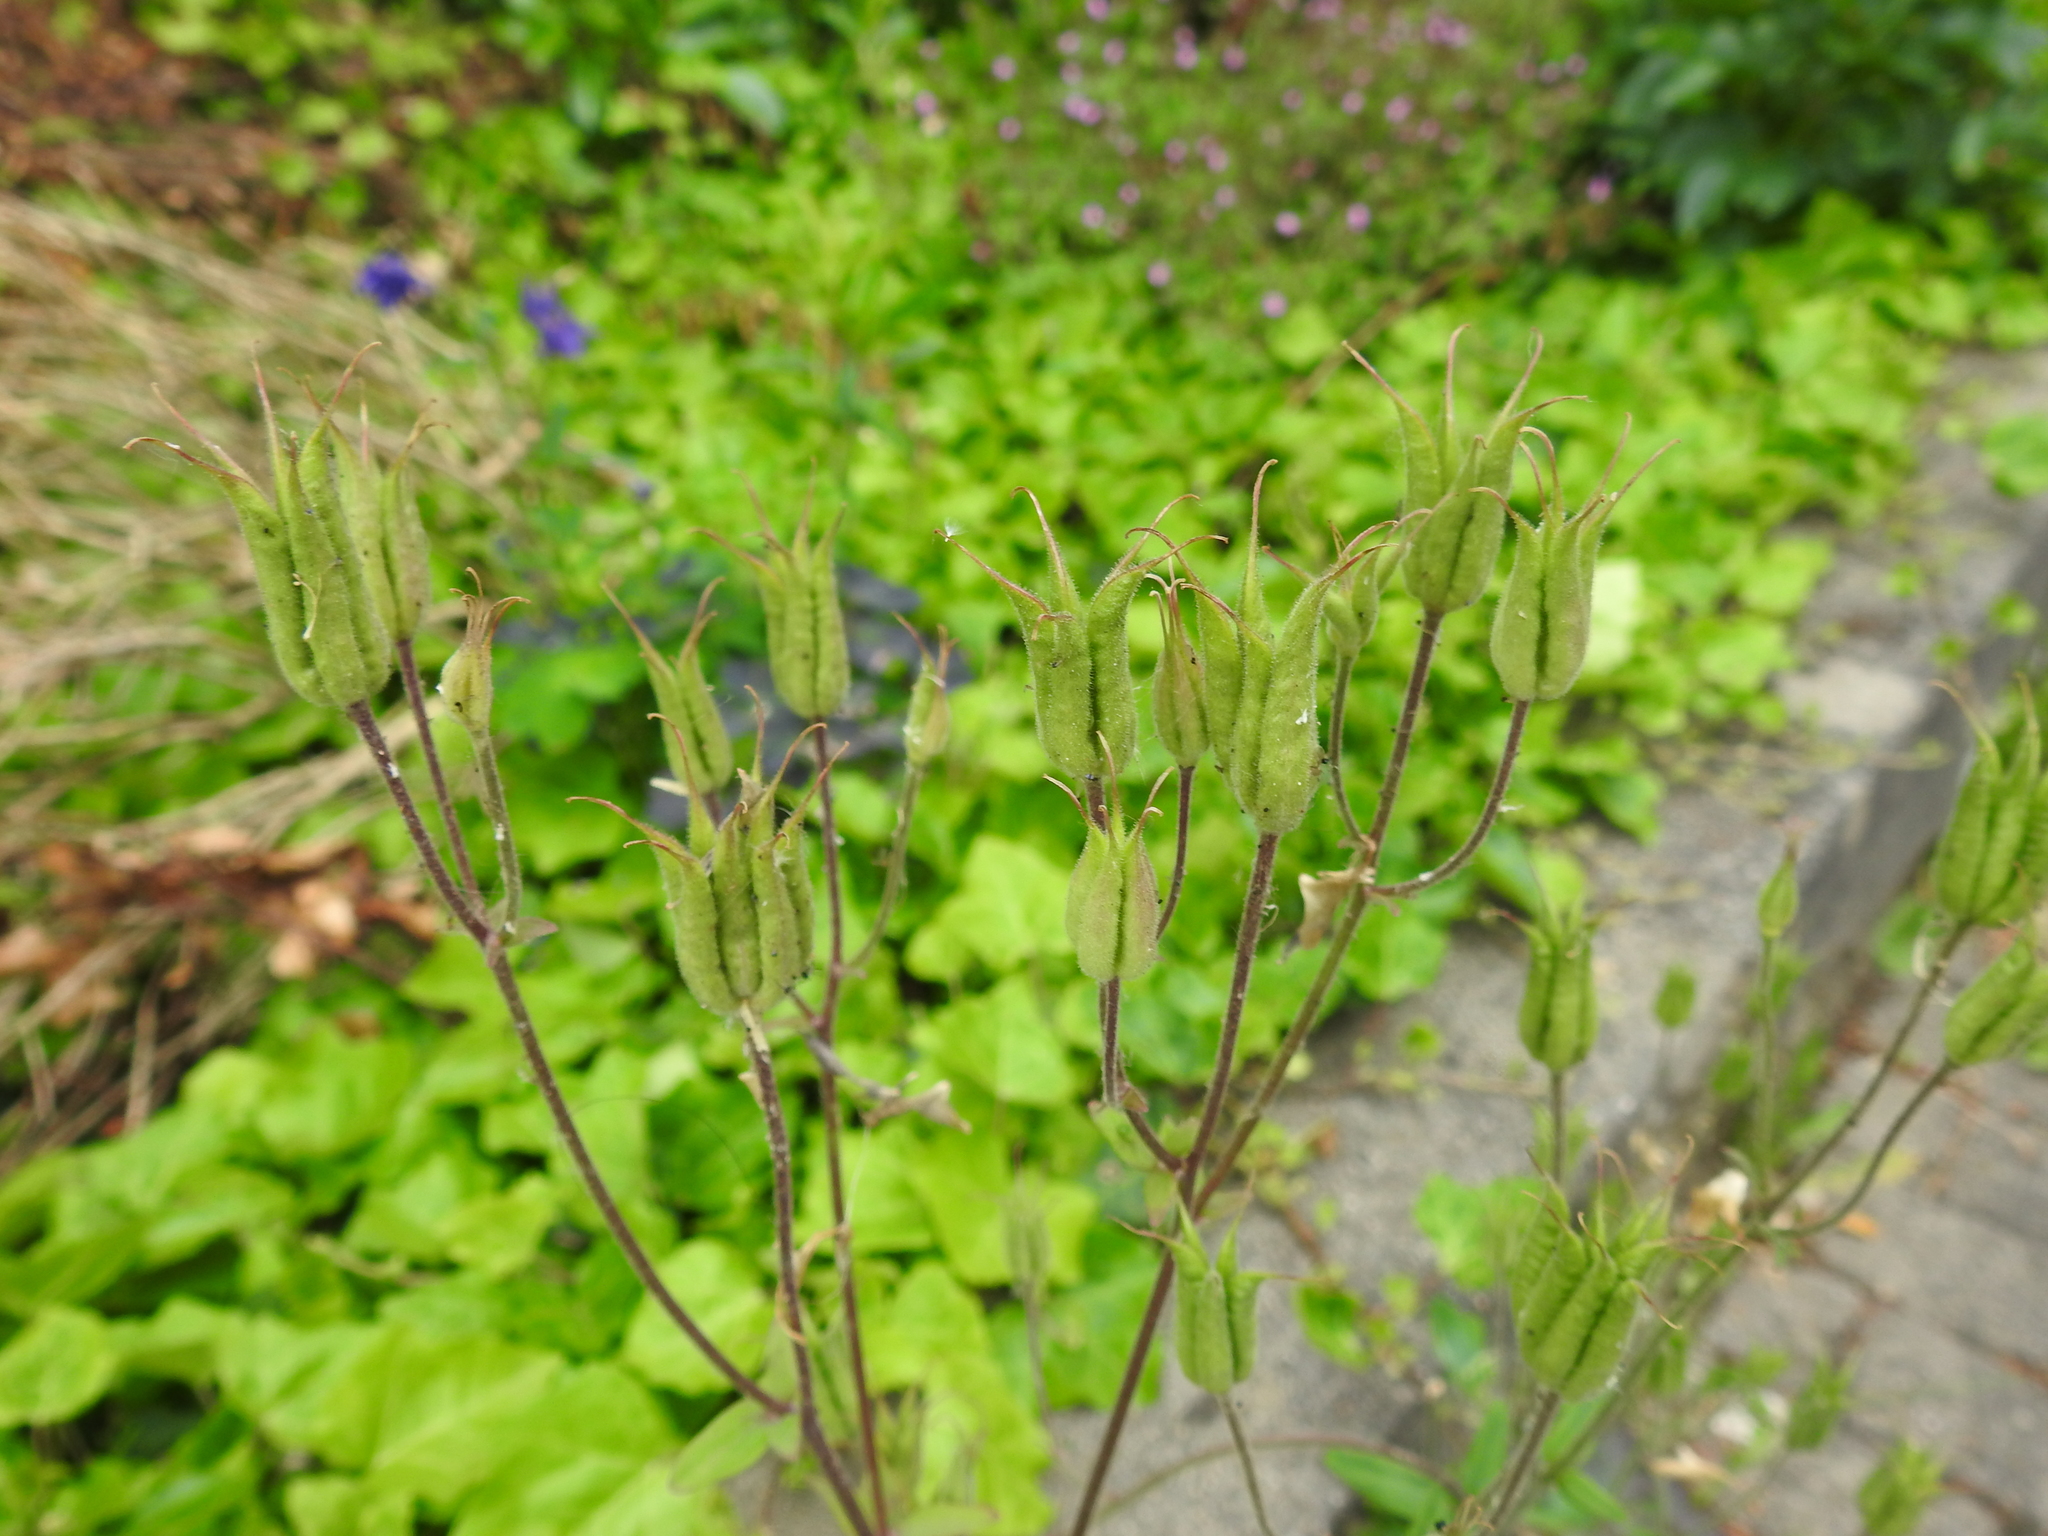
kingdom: Plantae
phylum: Tracheophyta
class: Magnoliopsida
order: Ranunculales
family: Ranunculaceae
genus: Aquilegia
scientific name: Aquilegia vulgaris
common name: Columbine
